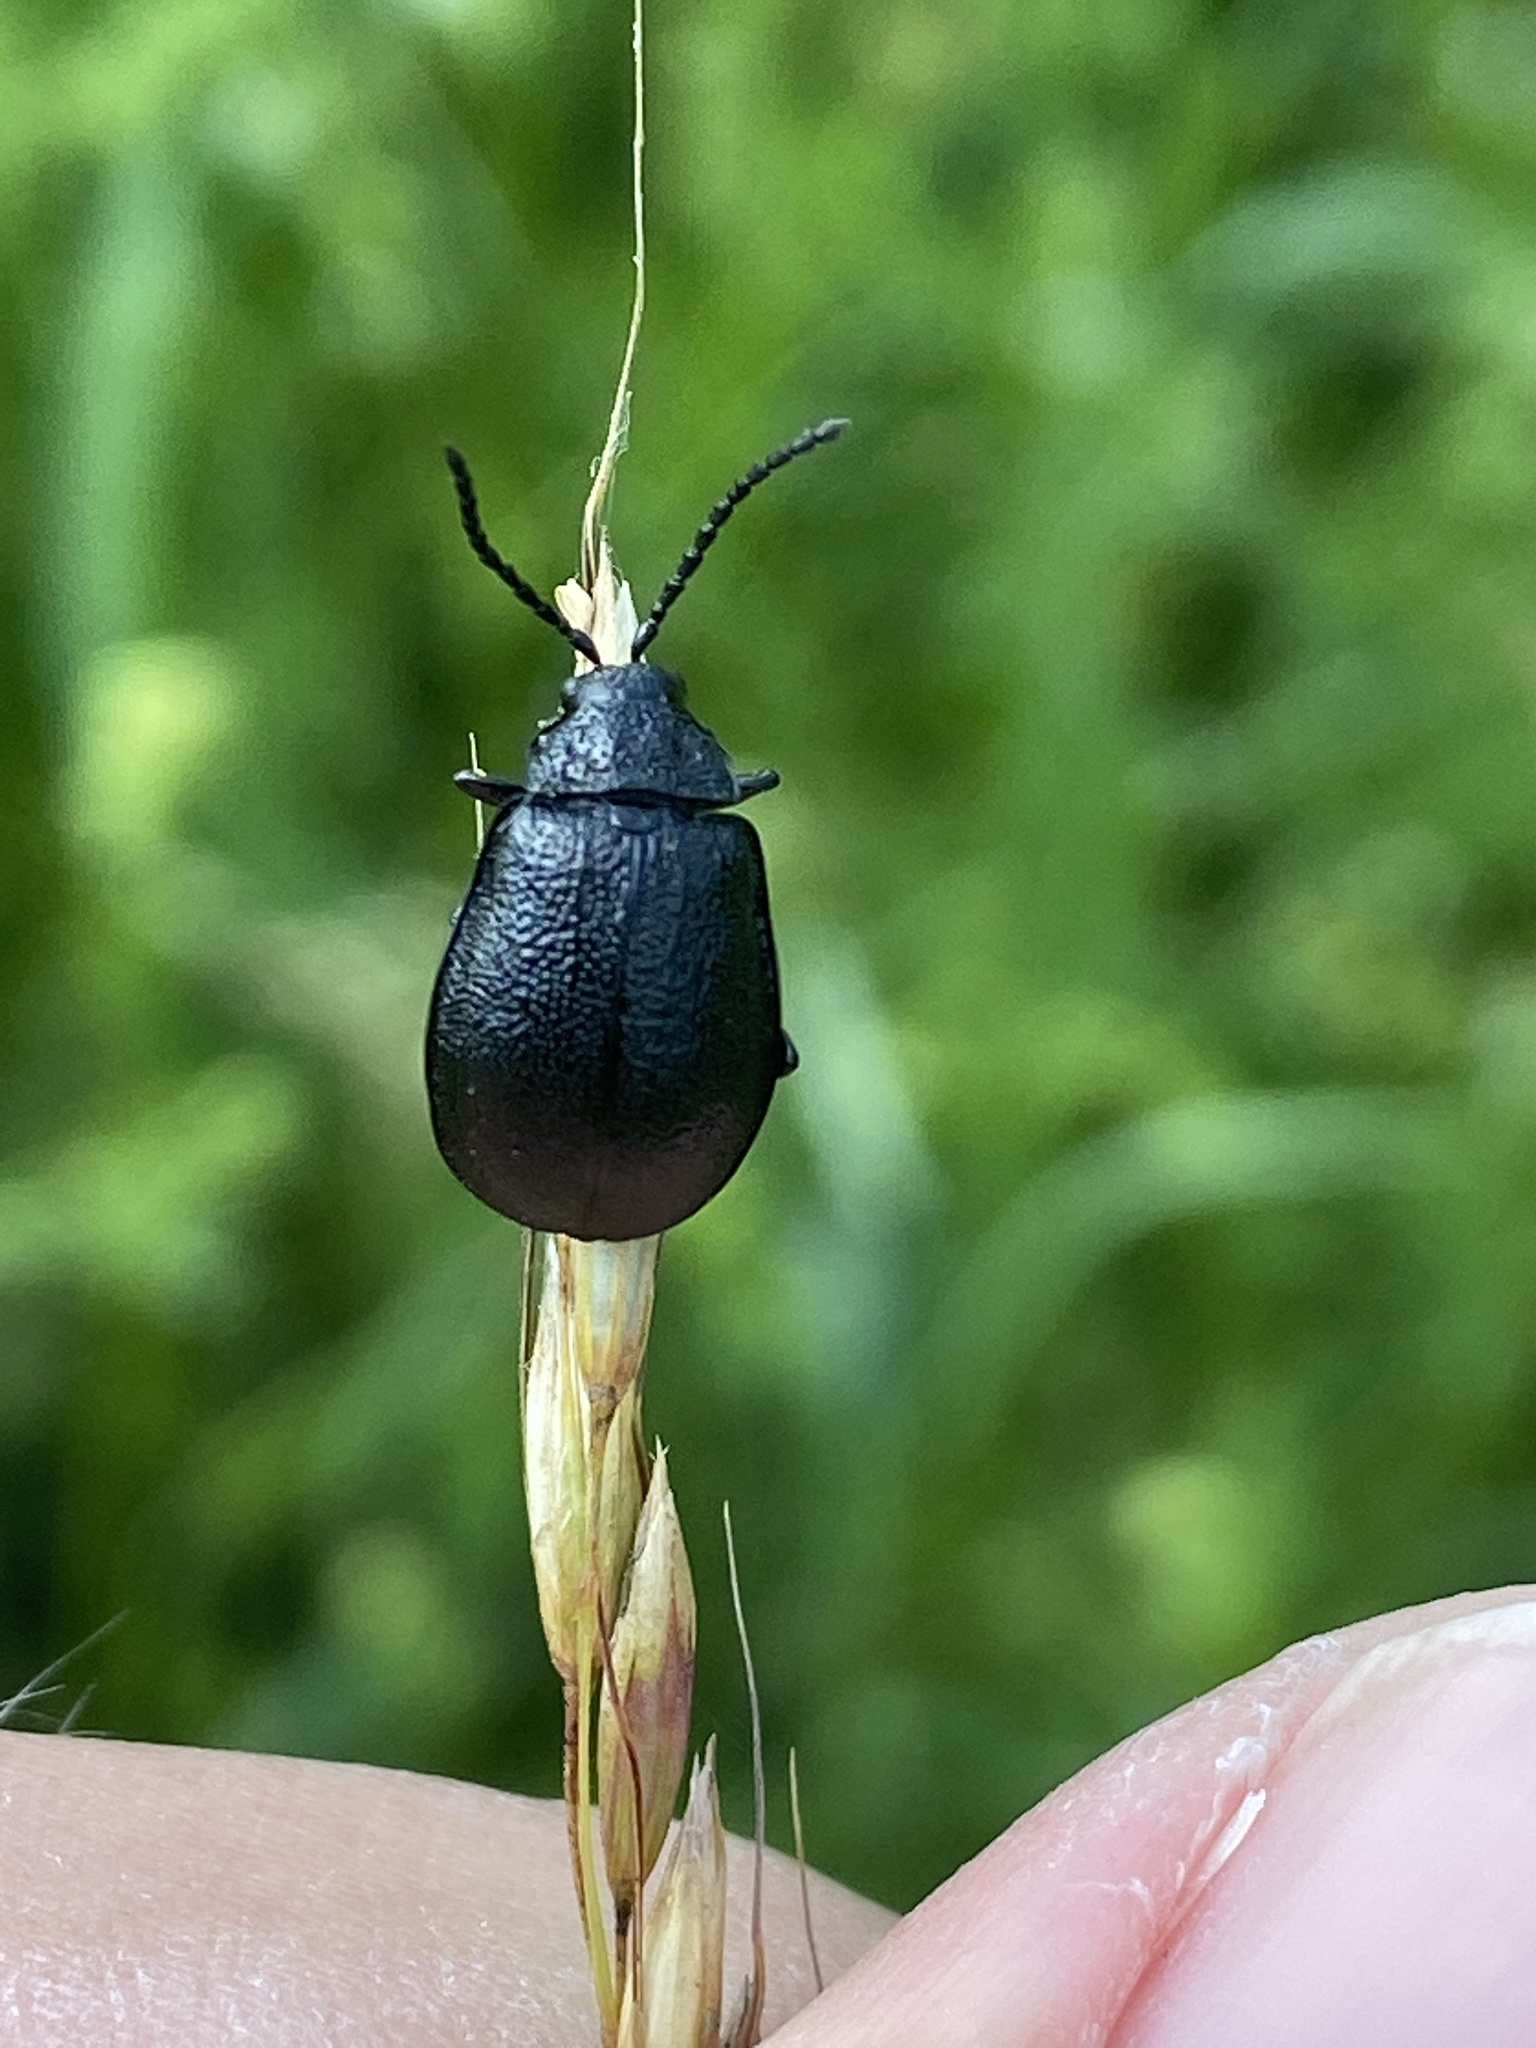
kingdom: Animalia
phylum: Arthropoda
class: Insecta
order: Coleoptera
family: Chrysomelidae
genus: Galeruca
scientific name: Galeruca tanaceti
